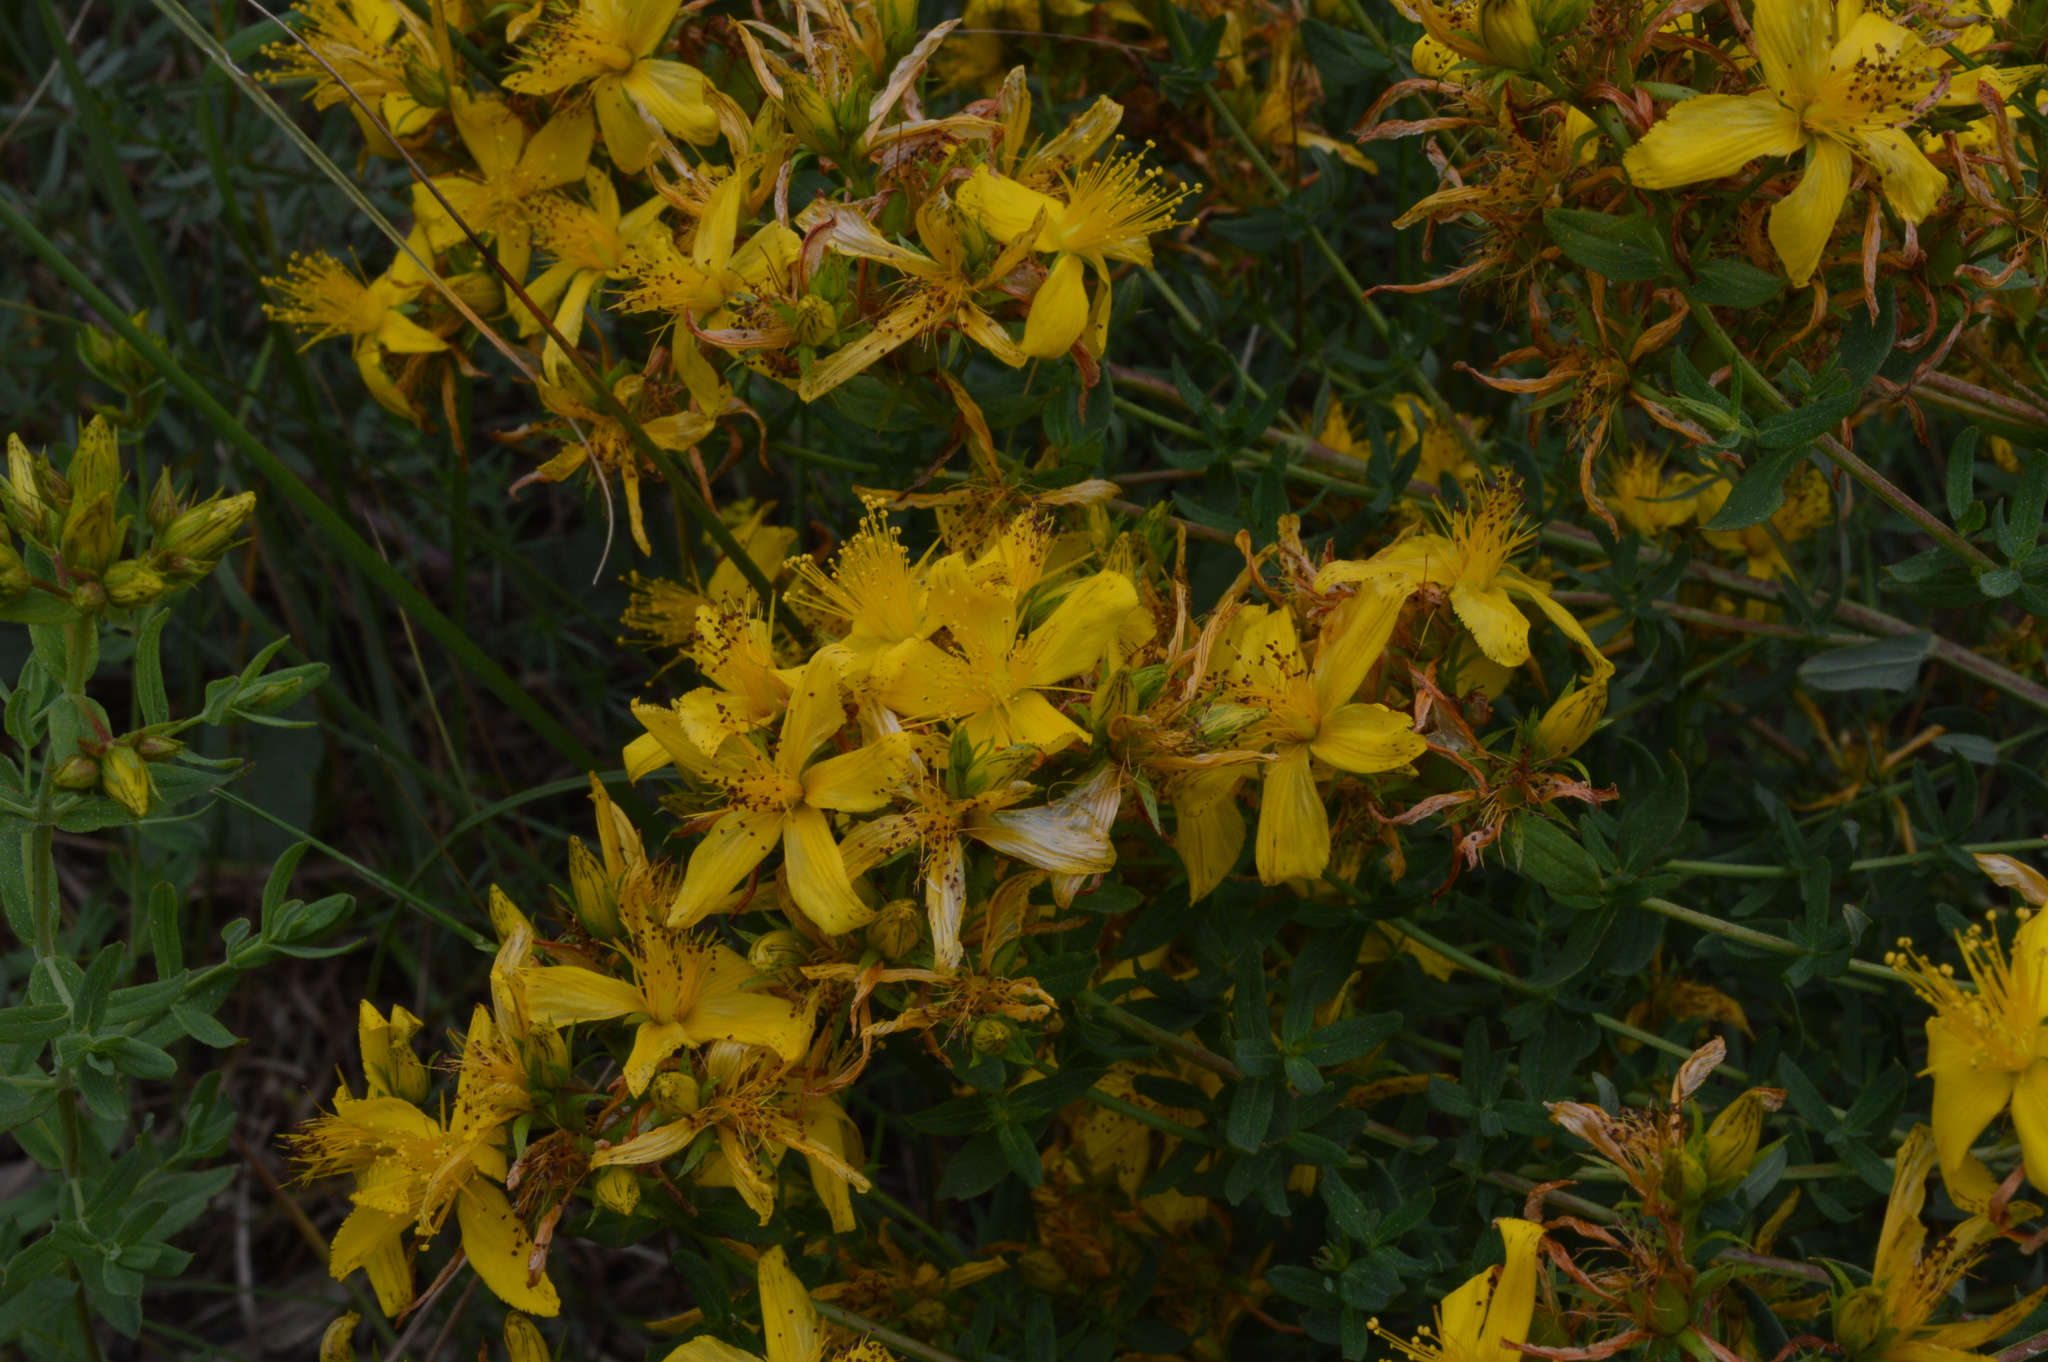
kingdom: Plantae
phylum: Tracheophyta
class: Magnoliopsida
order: Malpighiales
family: Hypericaceae
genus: Hypericum
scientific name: Hypericum perforatum
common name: Common st. johnswort
